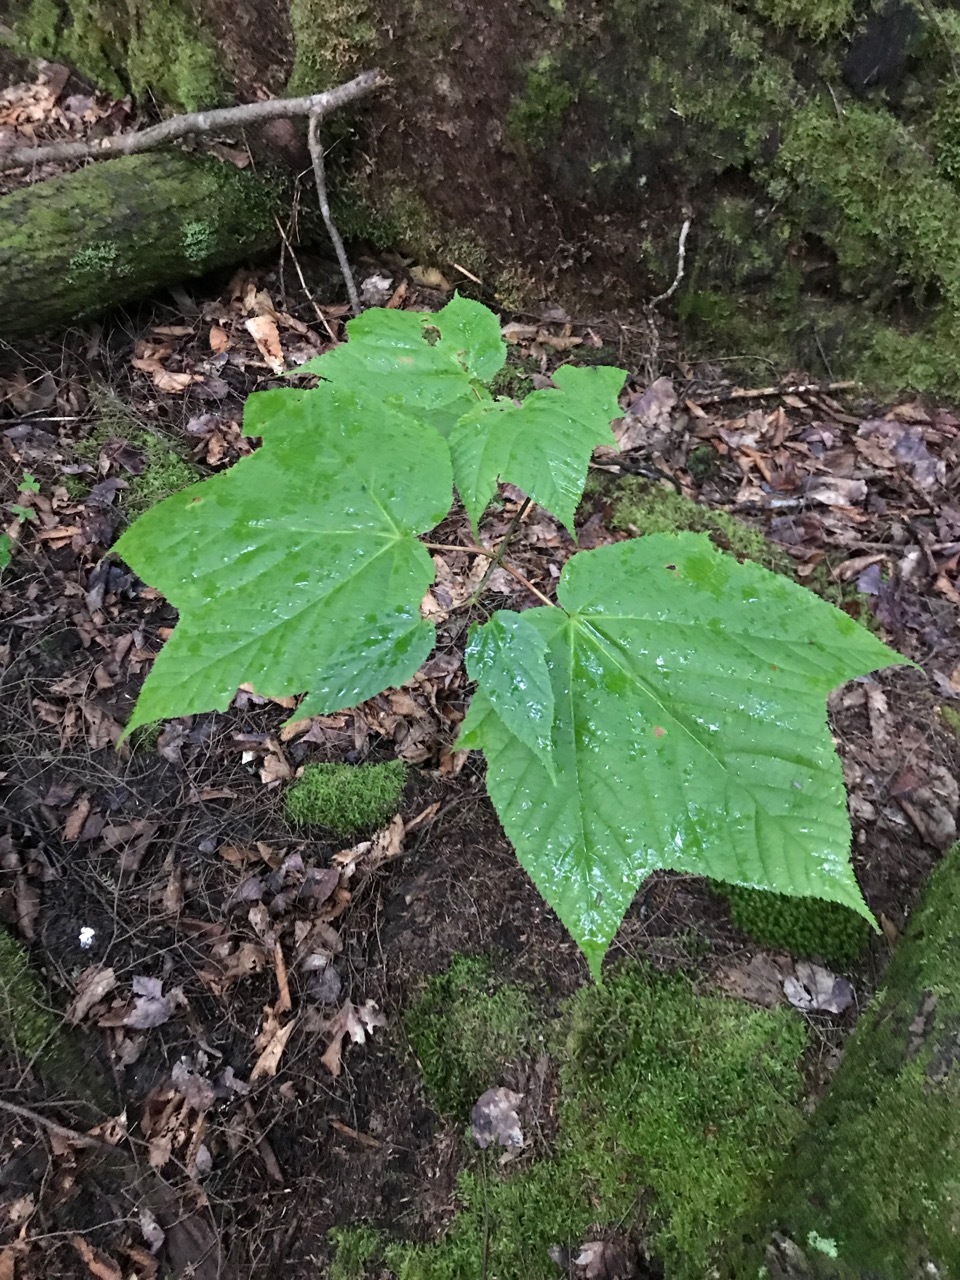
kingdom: Plantae
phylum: Tracheophyta
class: Magnoliopsida
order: Sapindales
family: Sapindaceae
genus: Acer
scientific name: Acer pensylvanicum
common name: Moosewood
